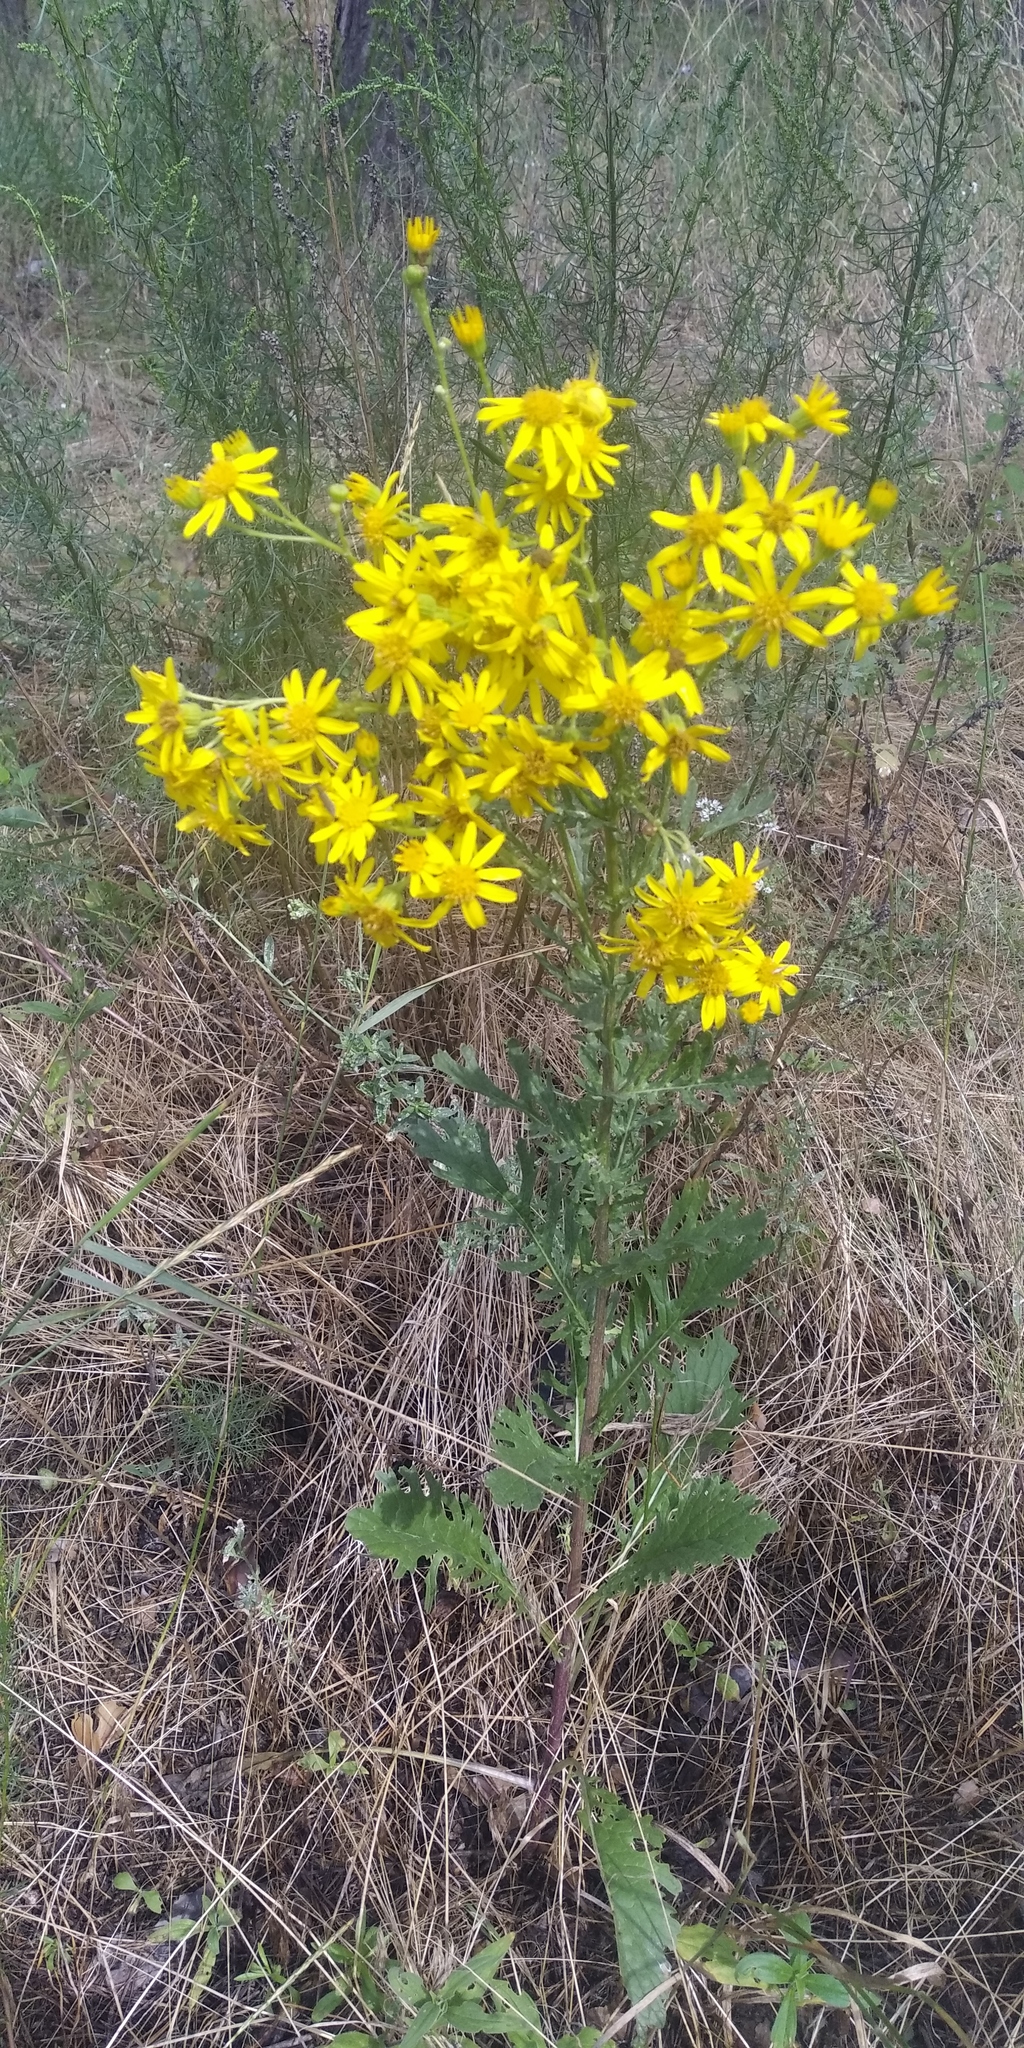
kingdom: Plantae
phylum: Tracheophyta
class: Magnoliopsida
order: Asterales
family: Asteraceae
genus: Jacobaea
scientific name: Jacobaea vulgaris
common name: Stinking willie
